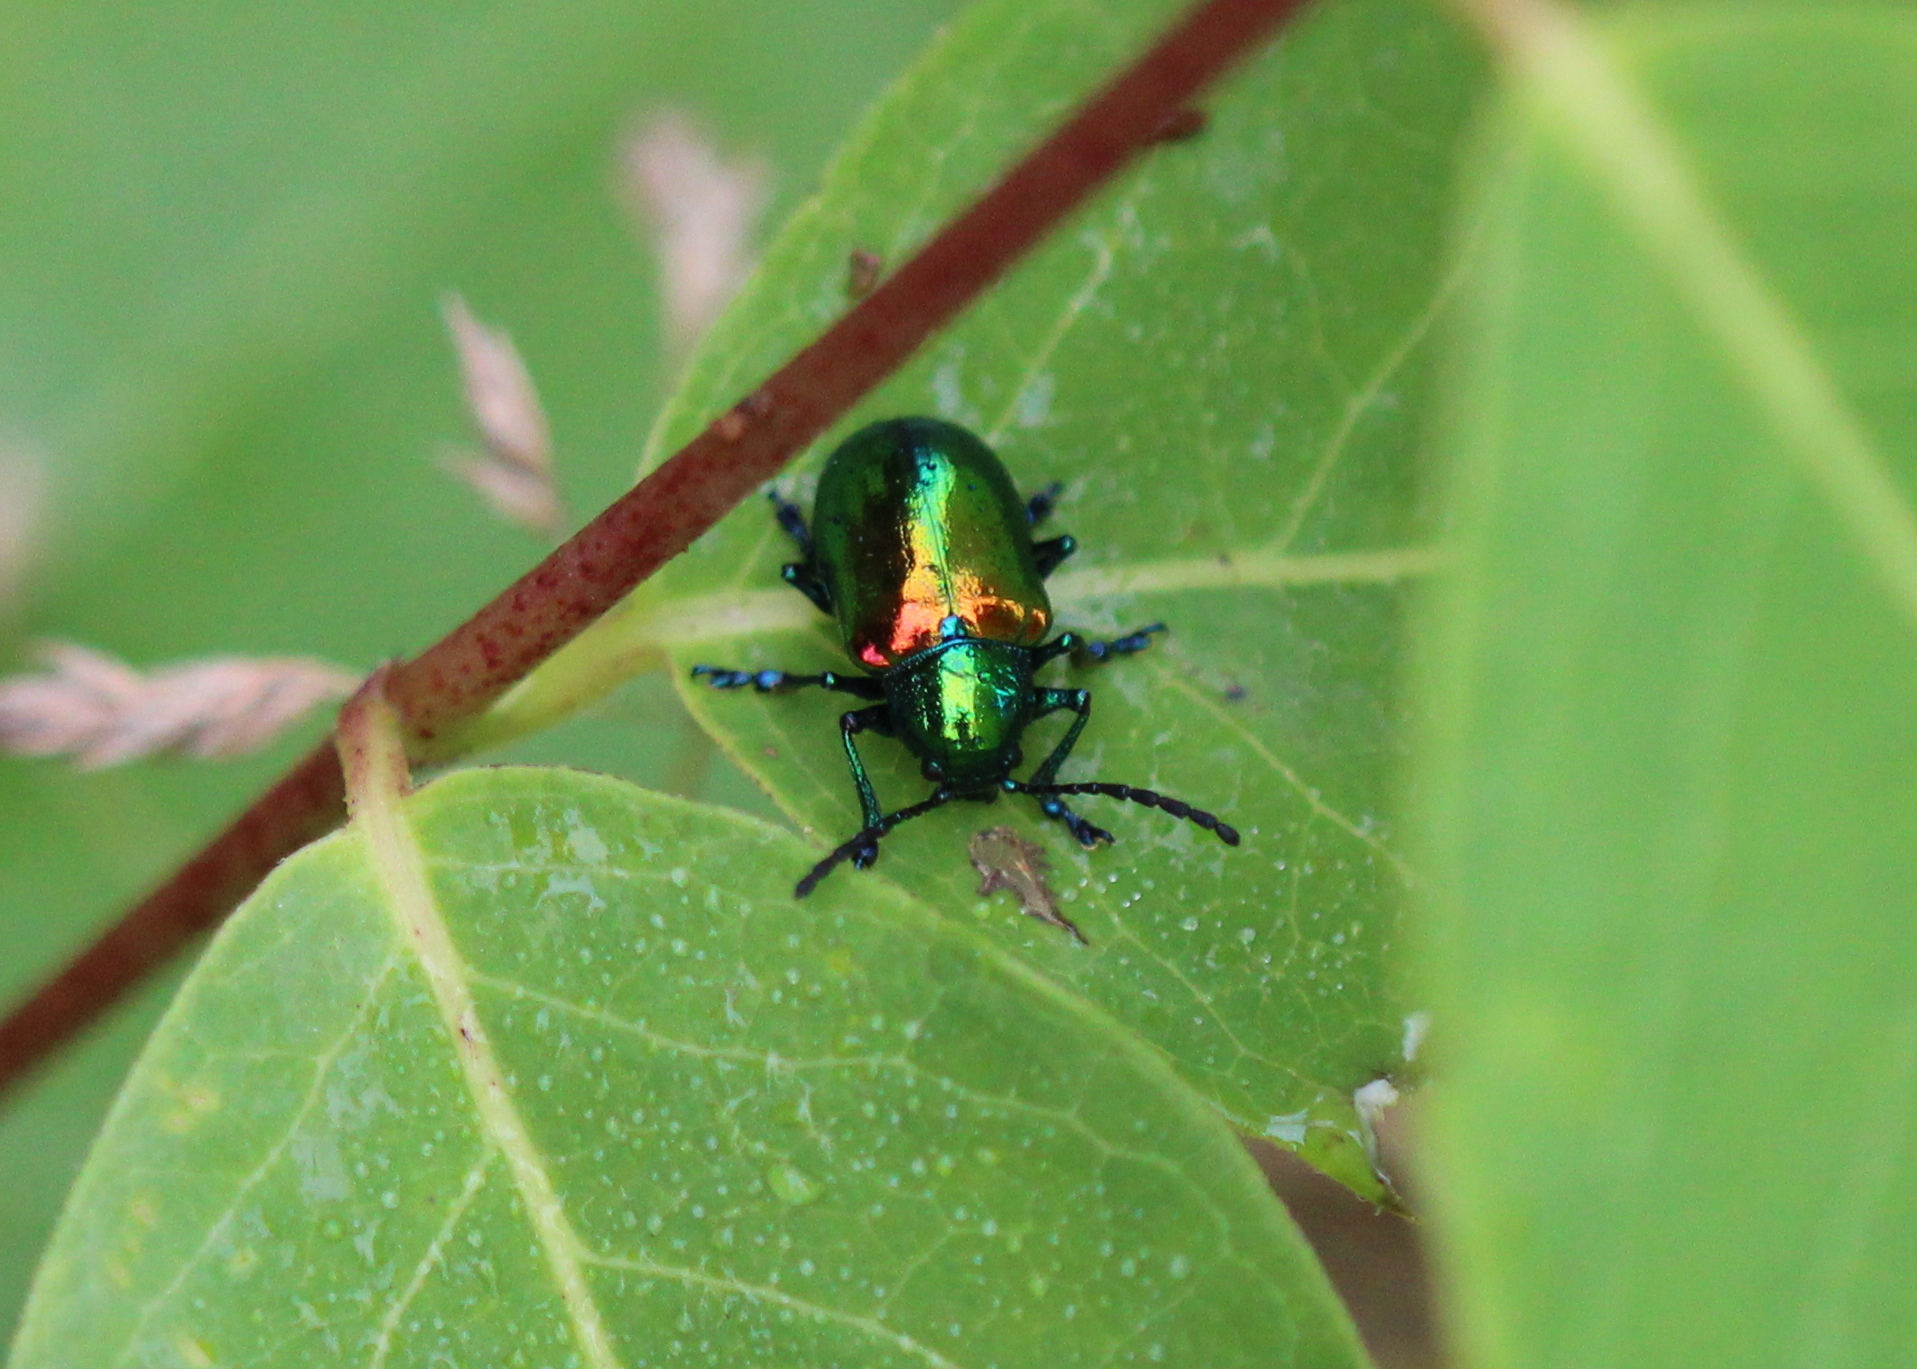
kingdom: Animalia
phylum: Arthropoda
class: Insecta
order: Coleoptera
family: Chrysomelidae
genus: Chrysochus
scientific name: Chrysochus auratus
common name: Dogbane leaf beetle
